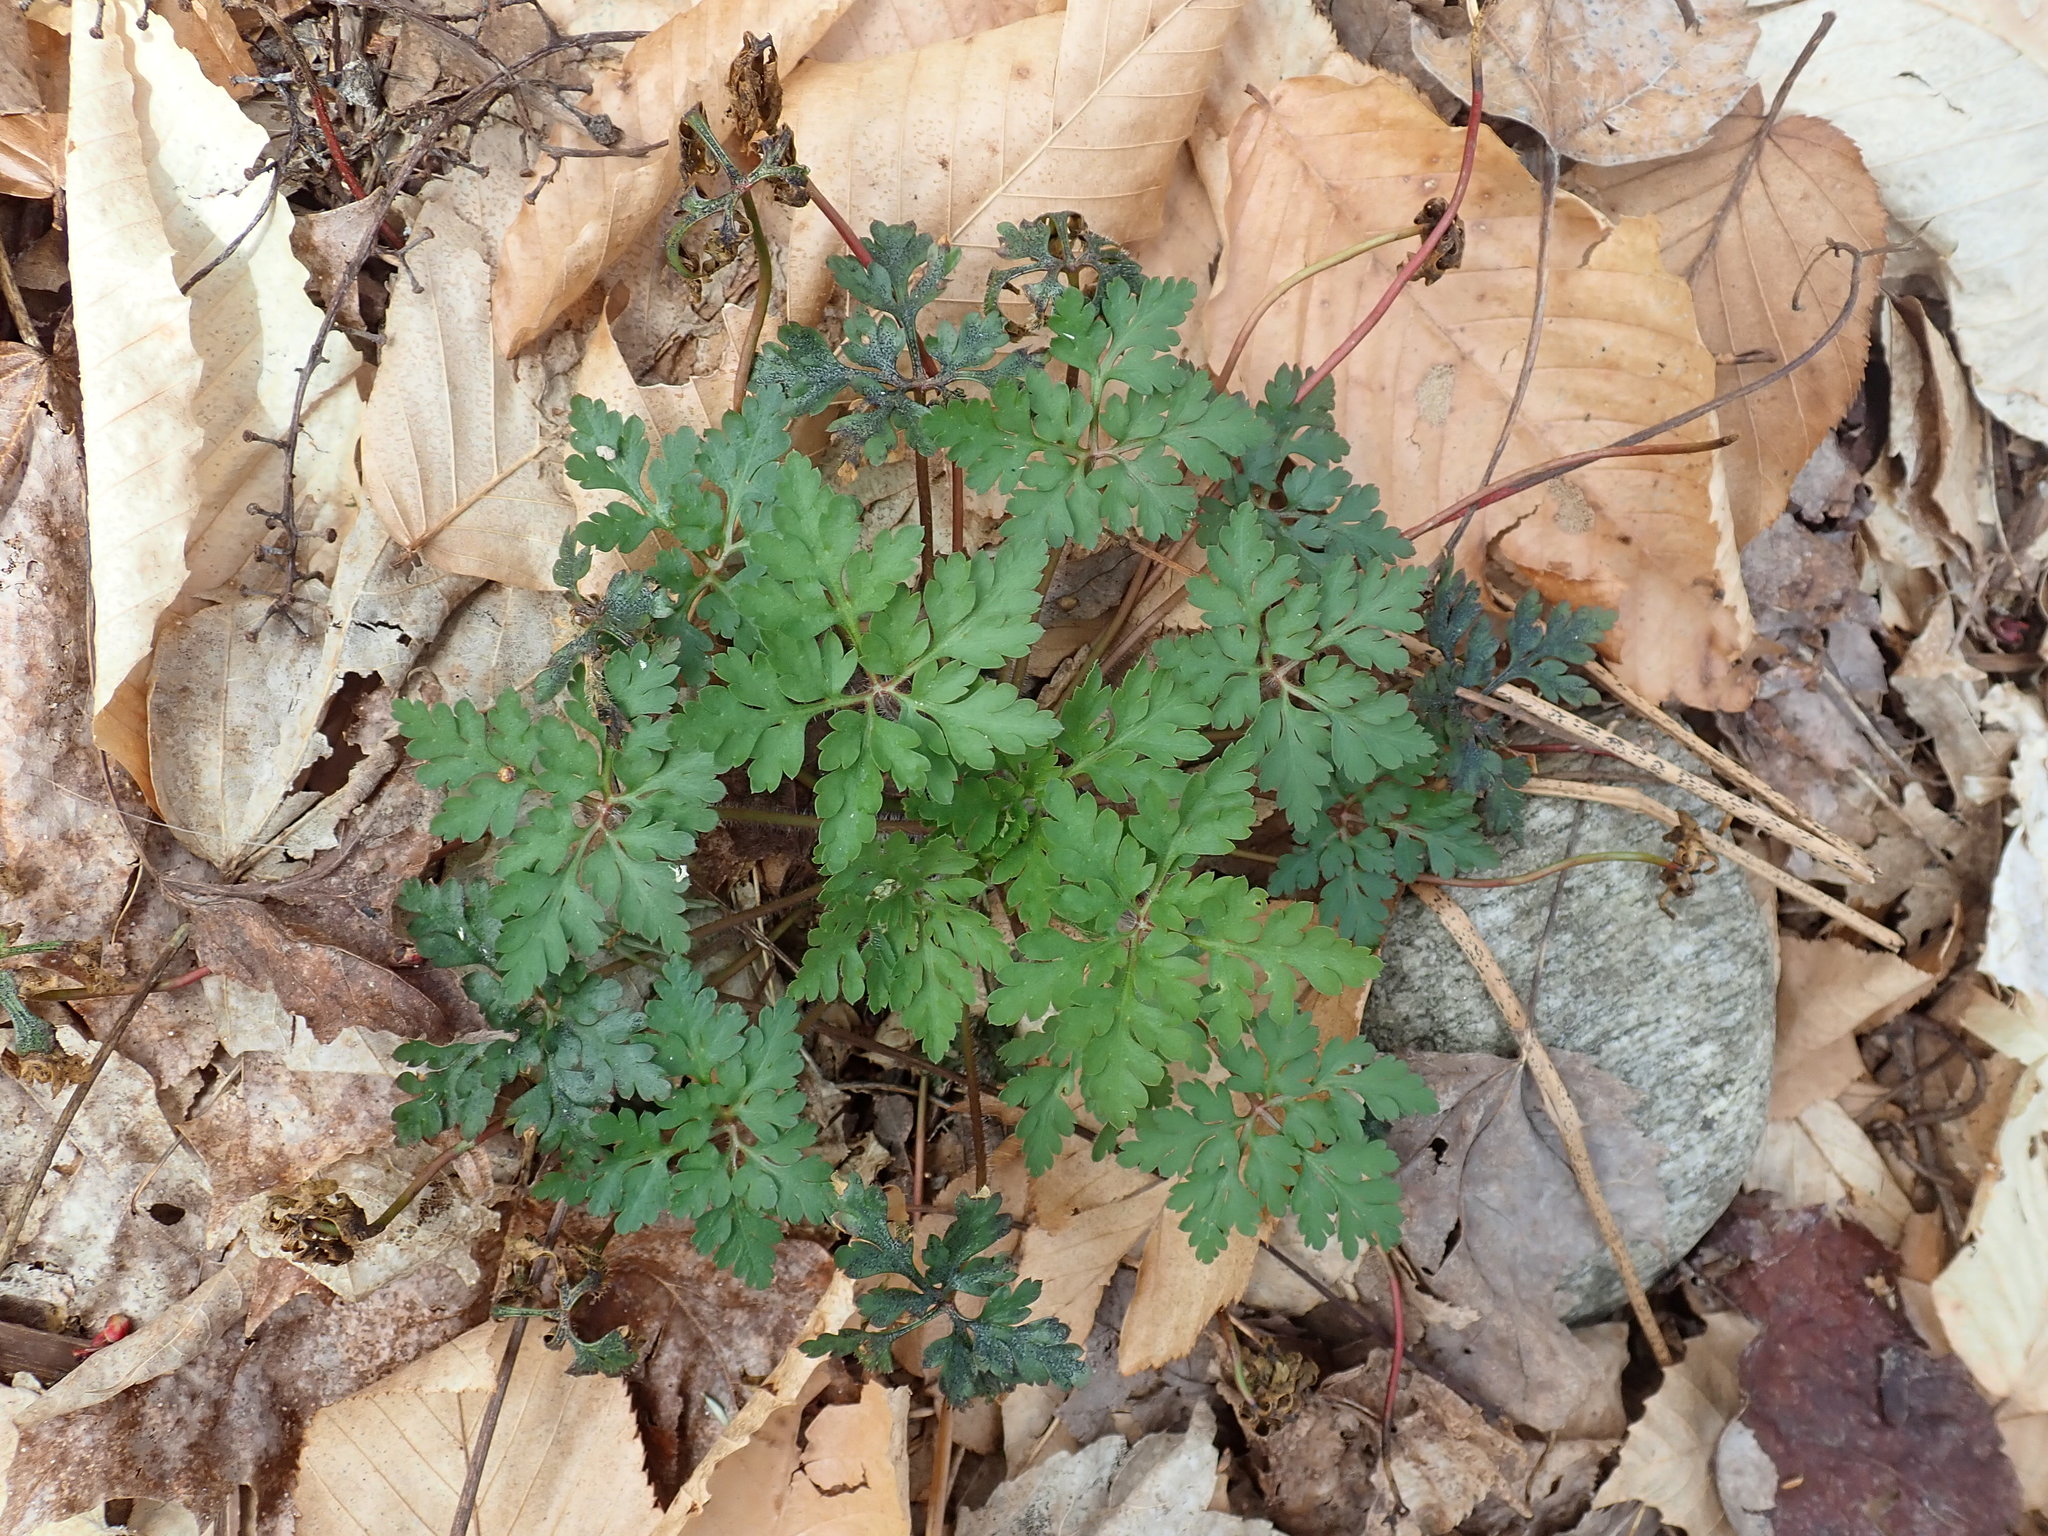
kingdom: Plantae
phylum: Tracheophyta
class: Magnoliopsida
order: Geraniales
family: Geraniaceae
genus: Geranium
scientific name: Geranium robertianum
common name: Herb-robert
